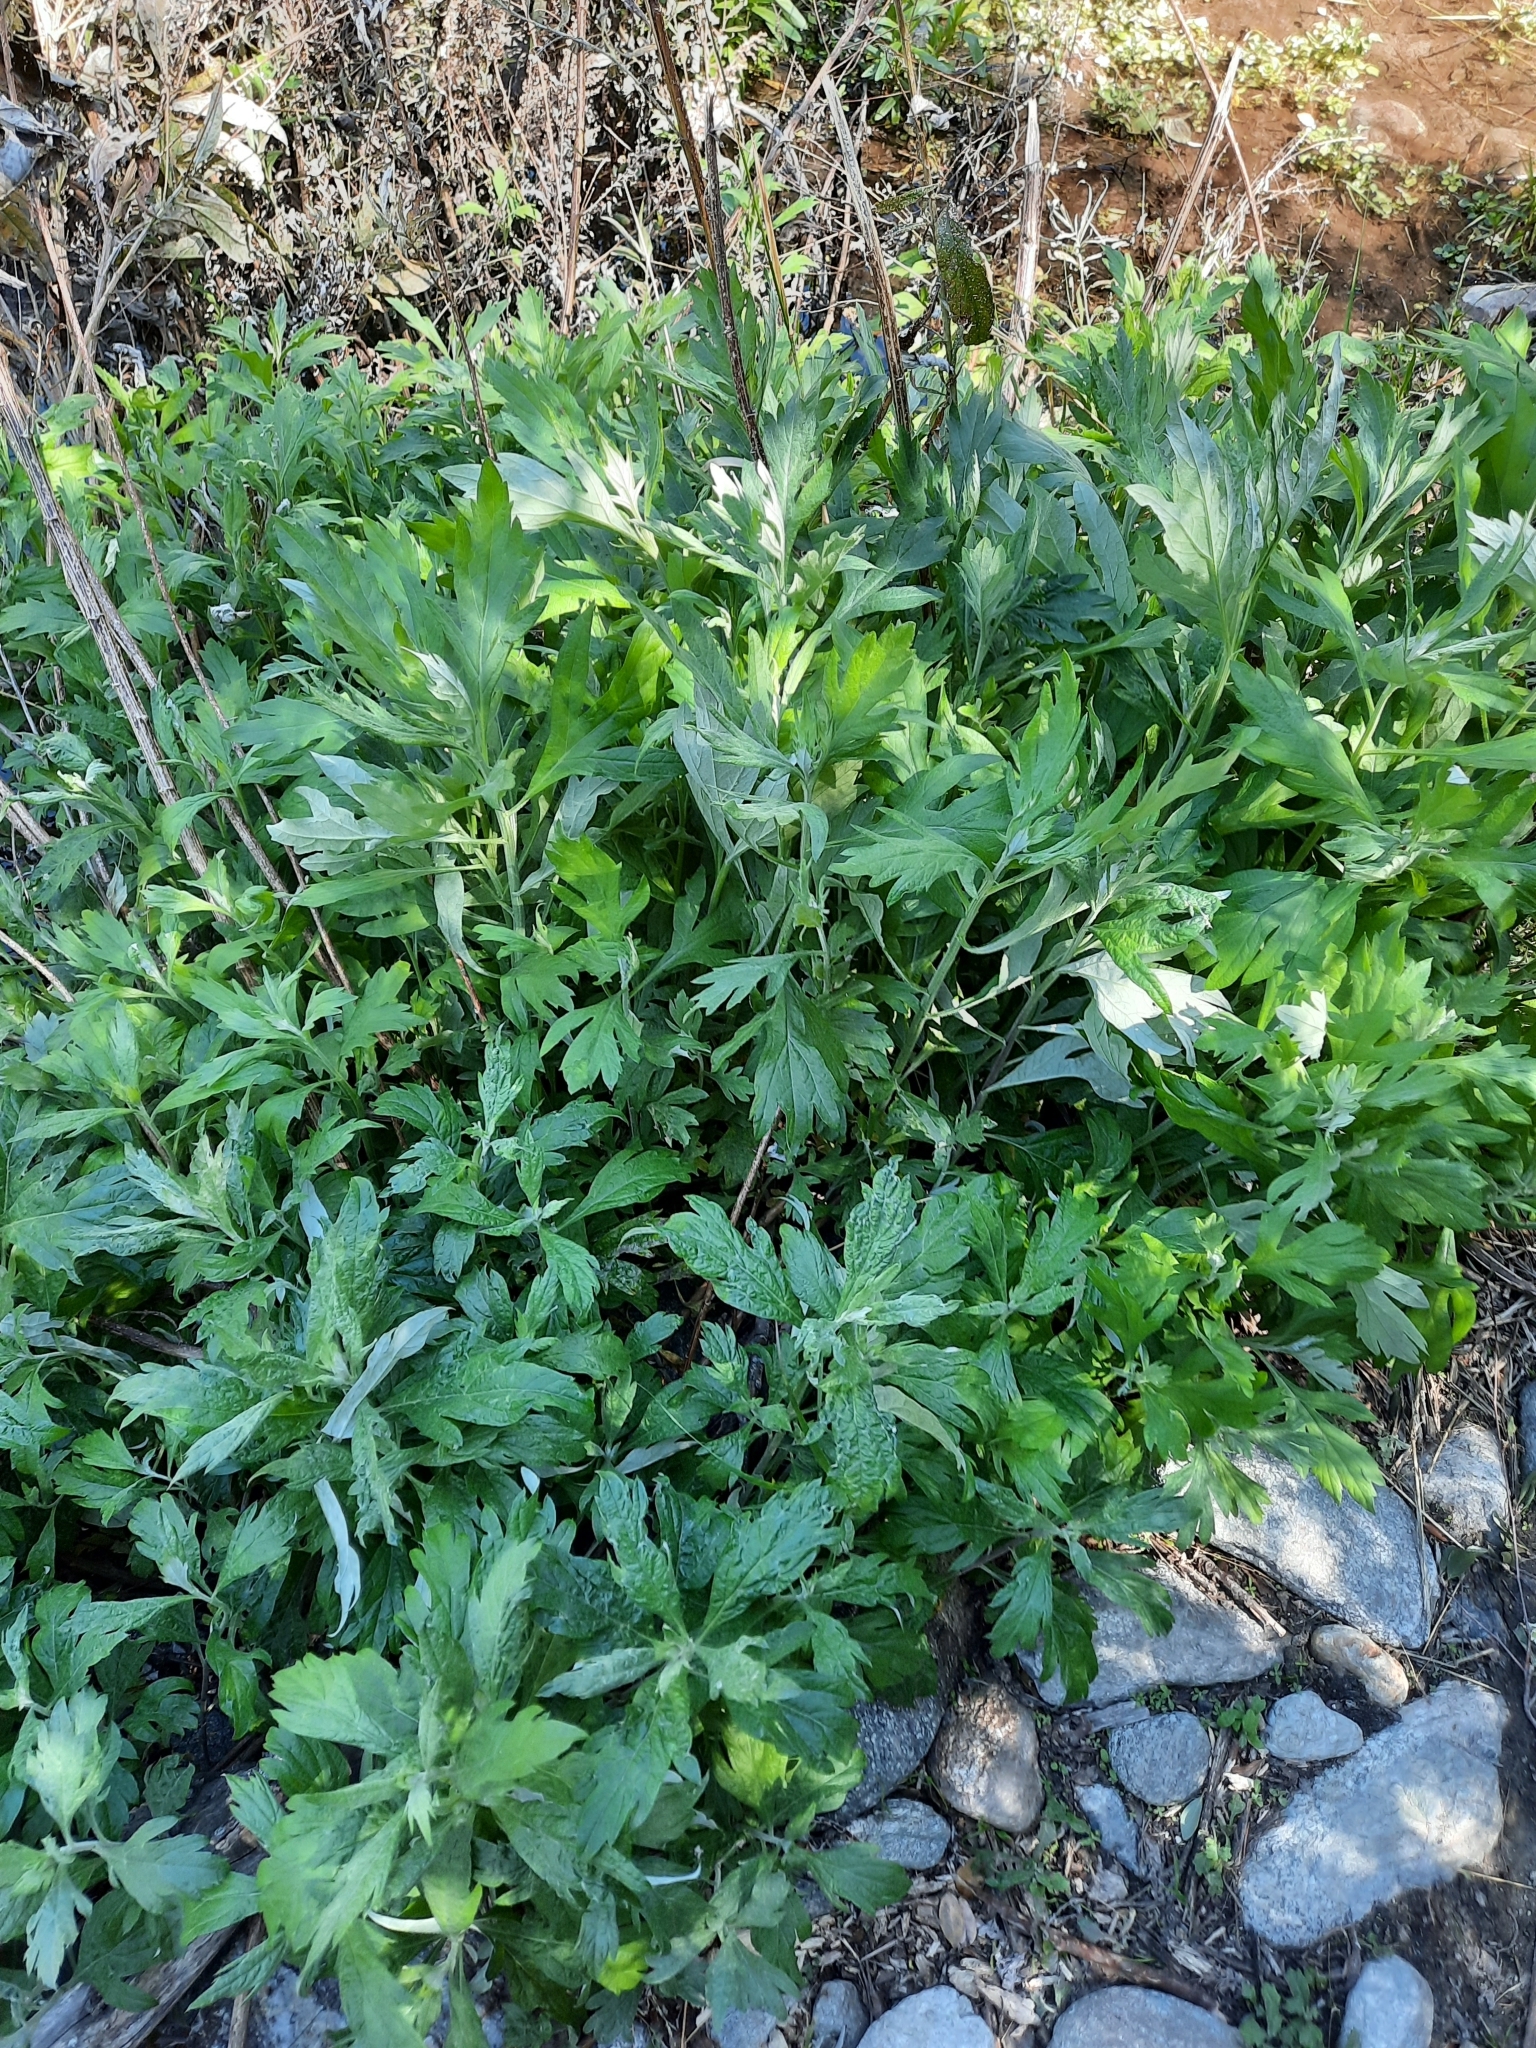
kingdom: Plantae
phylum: Tracheophyta
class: Magnoliopsida
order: Asterales
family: Asteraceae
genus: Artemisia
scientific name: Artemisia douglasiana
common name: Northwest mugwort
